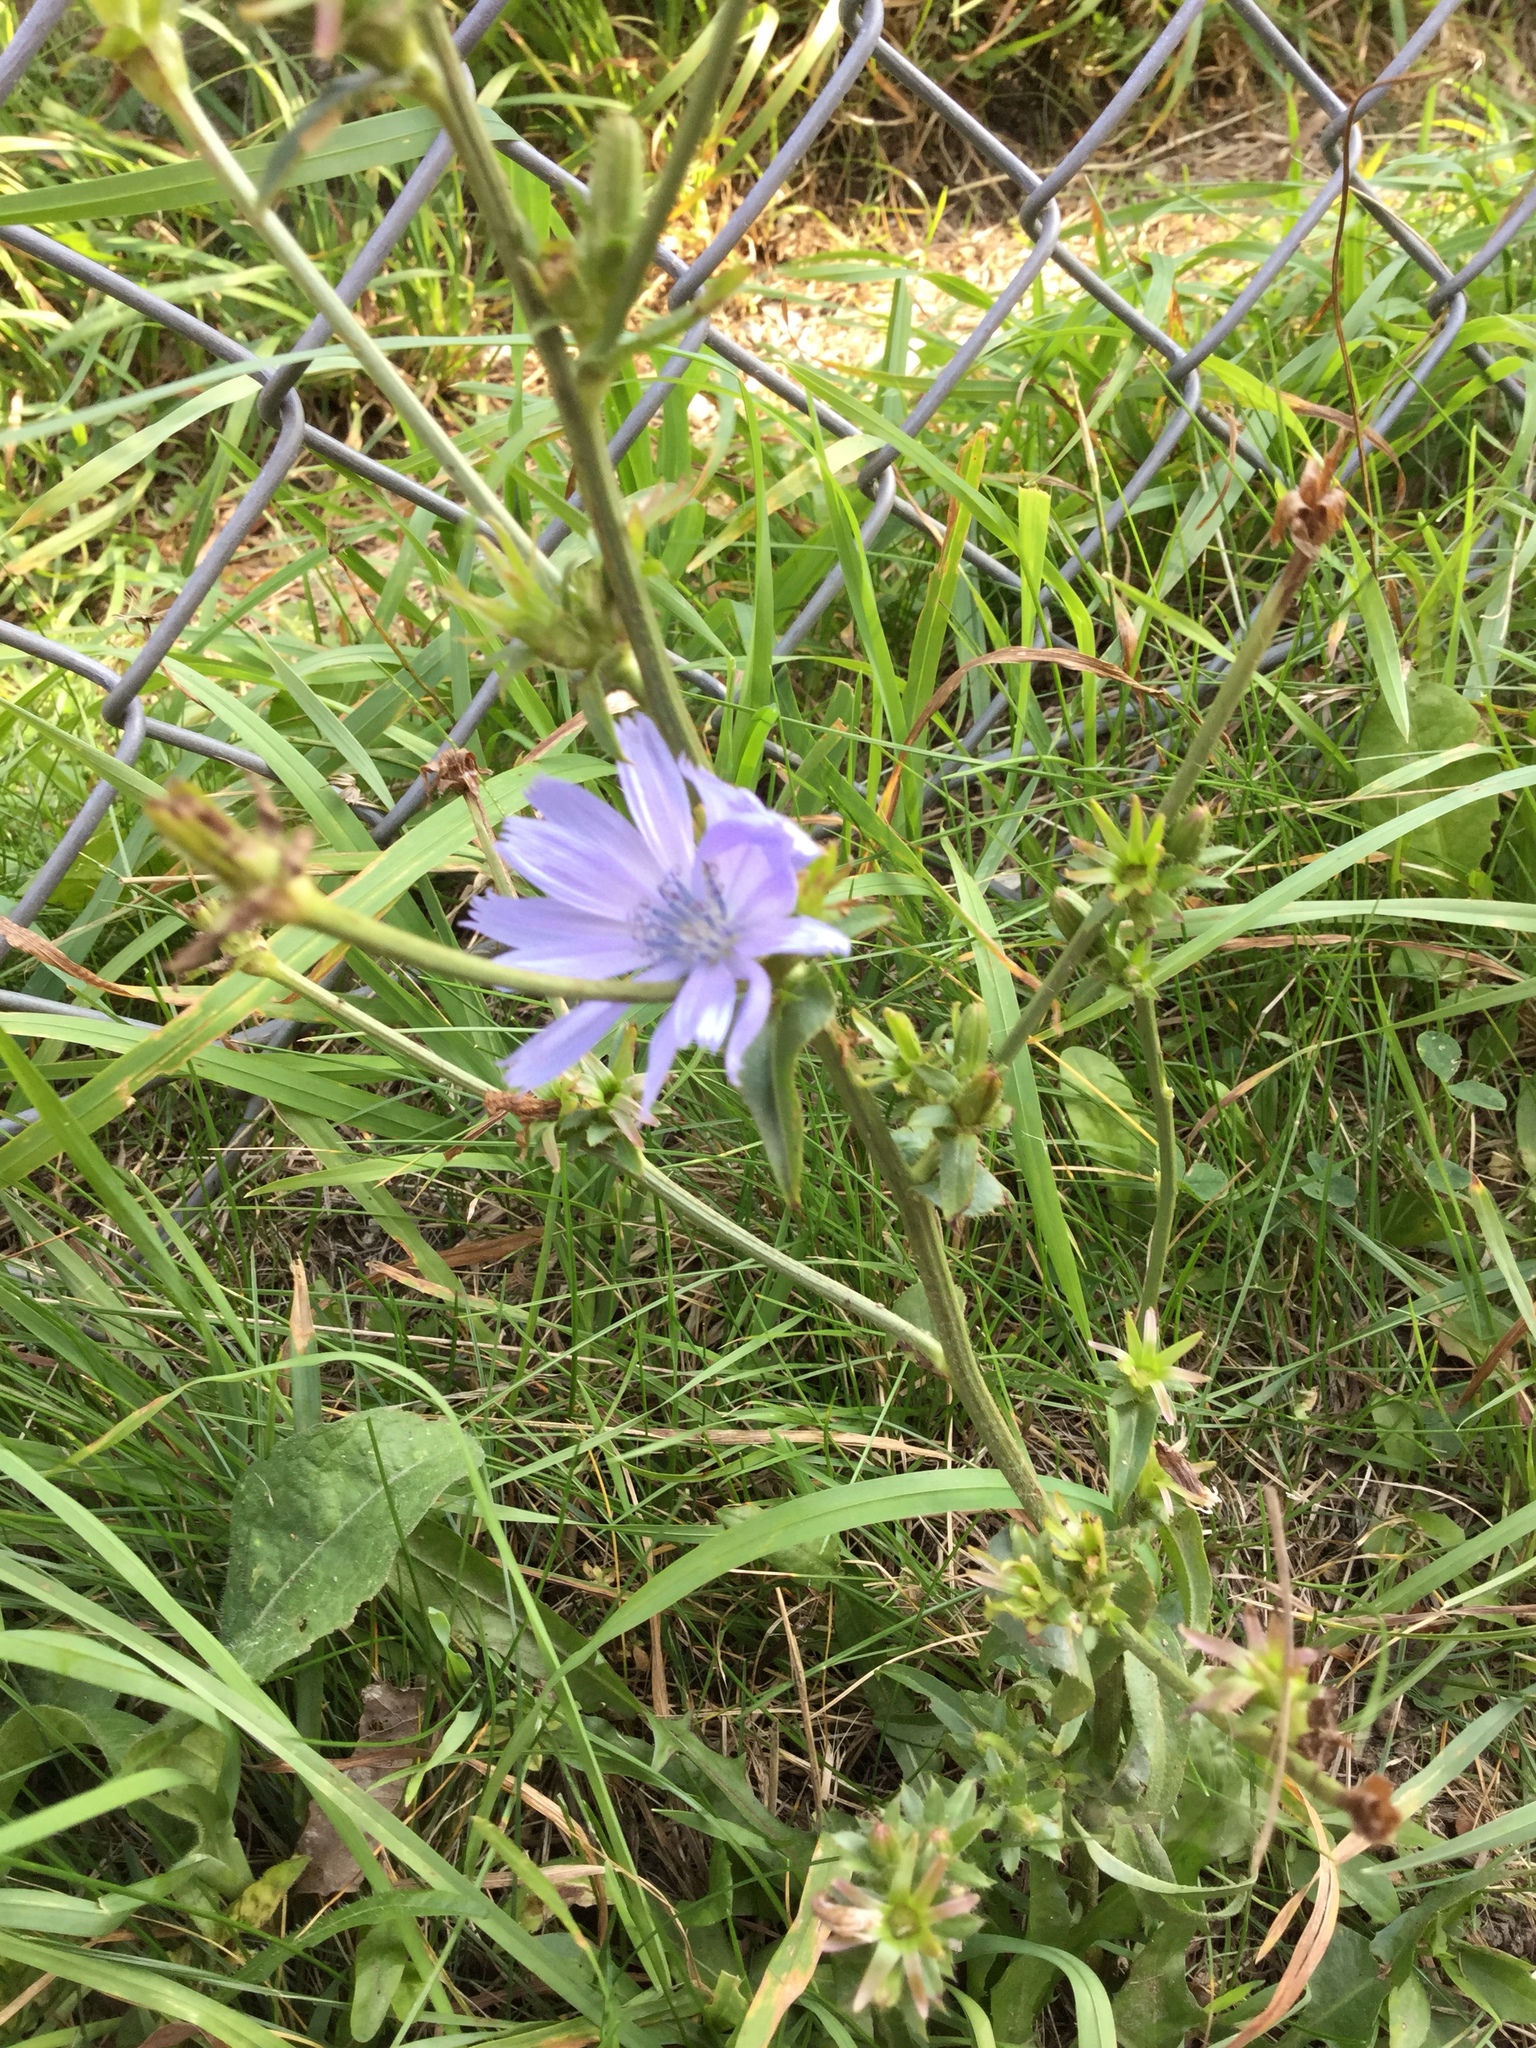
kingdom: Plantae
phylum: Tracheophyta
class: Magnoliopsida
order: Asterales
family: Asteraceae
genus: Cichorium
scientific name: Cichorium intybus
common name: Chicory
